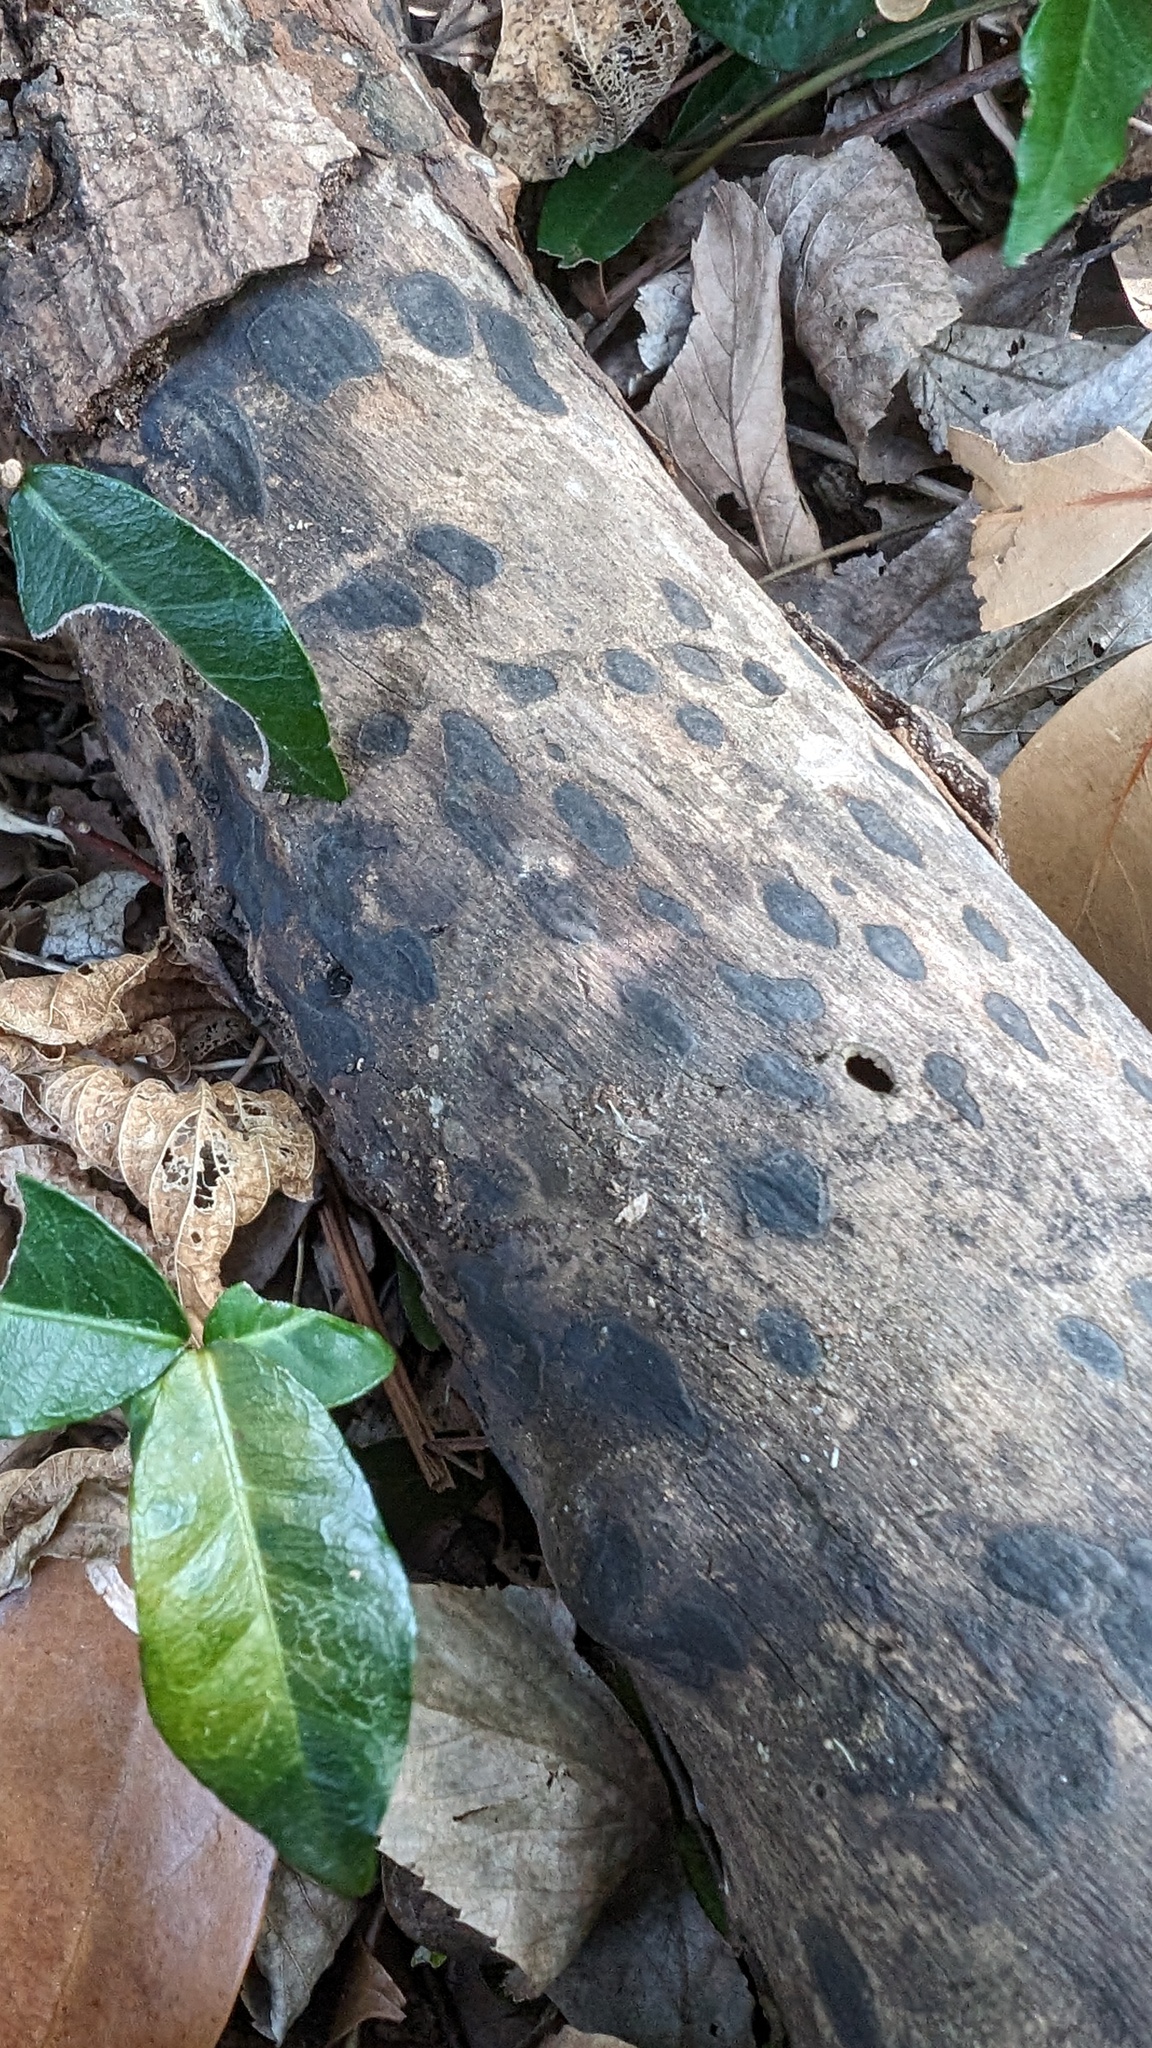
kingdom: Fungi
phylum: Ascomycota
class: Sordariomycetes
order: Xylariales
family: Xylariaceae
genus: Whalleya
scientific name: Whalleya microplaca
